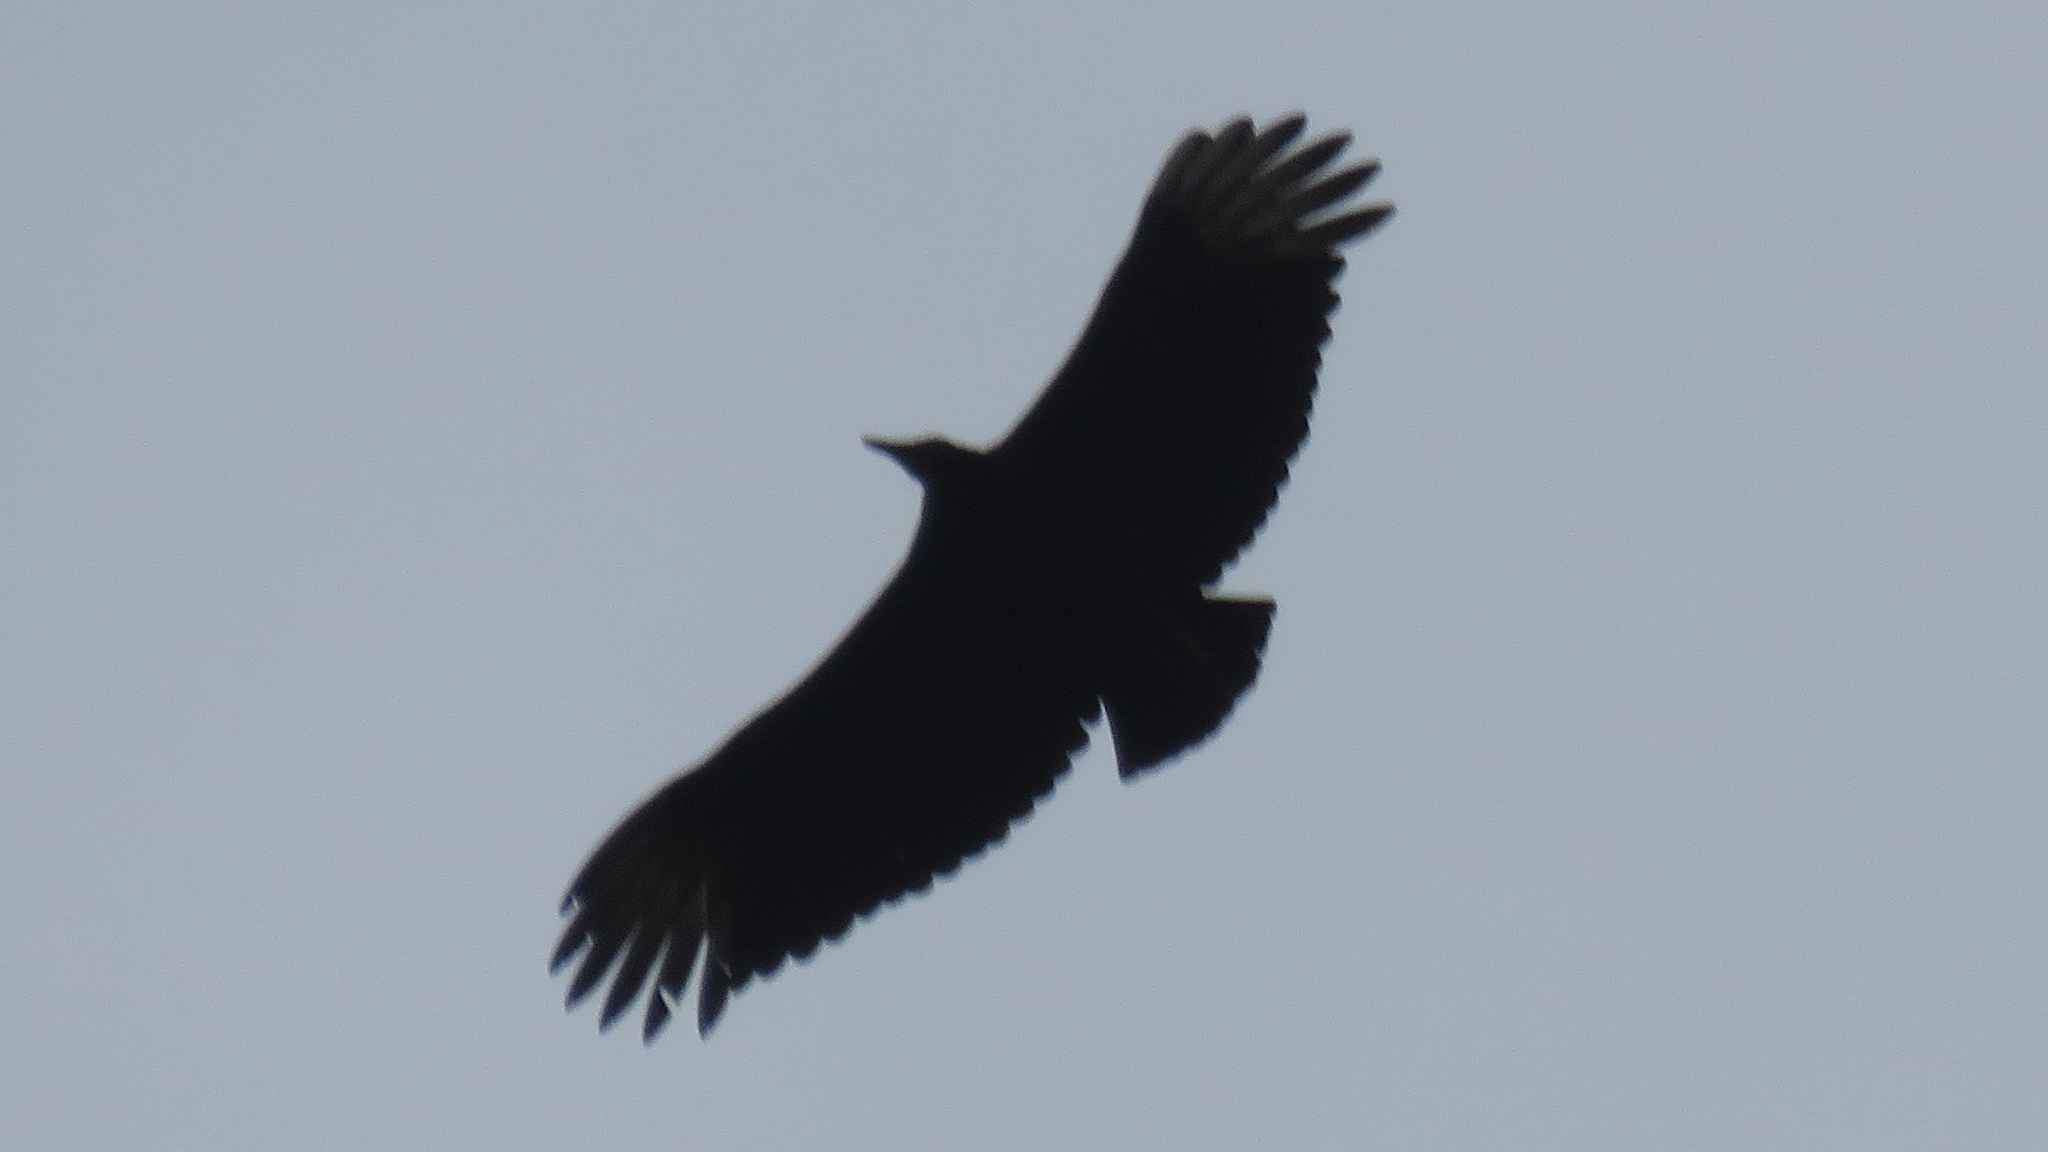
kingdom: Animalia
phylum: Chordata
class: Aves
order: Accipitriformes
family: Cathartidae
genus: Coragyps
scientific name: Coragyps atratus
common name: Black vulture
